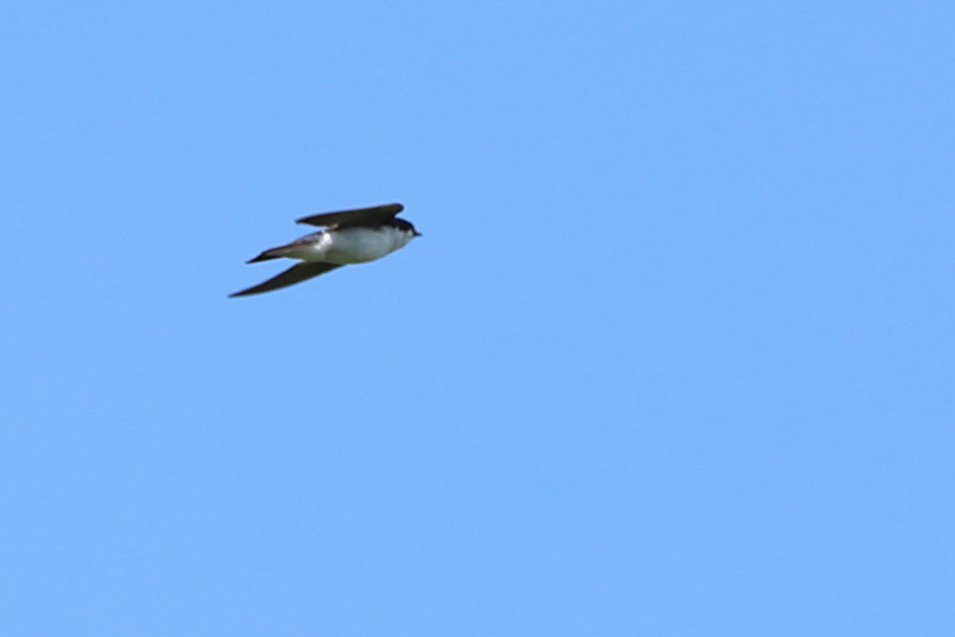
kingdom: Animalia
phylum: Chordata
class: Aves
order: Passeriformes
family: Hirundinidae
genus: Tachycineta
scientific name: Tachycineta bicolor
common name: Tree swallow
